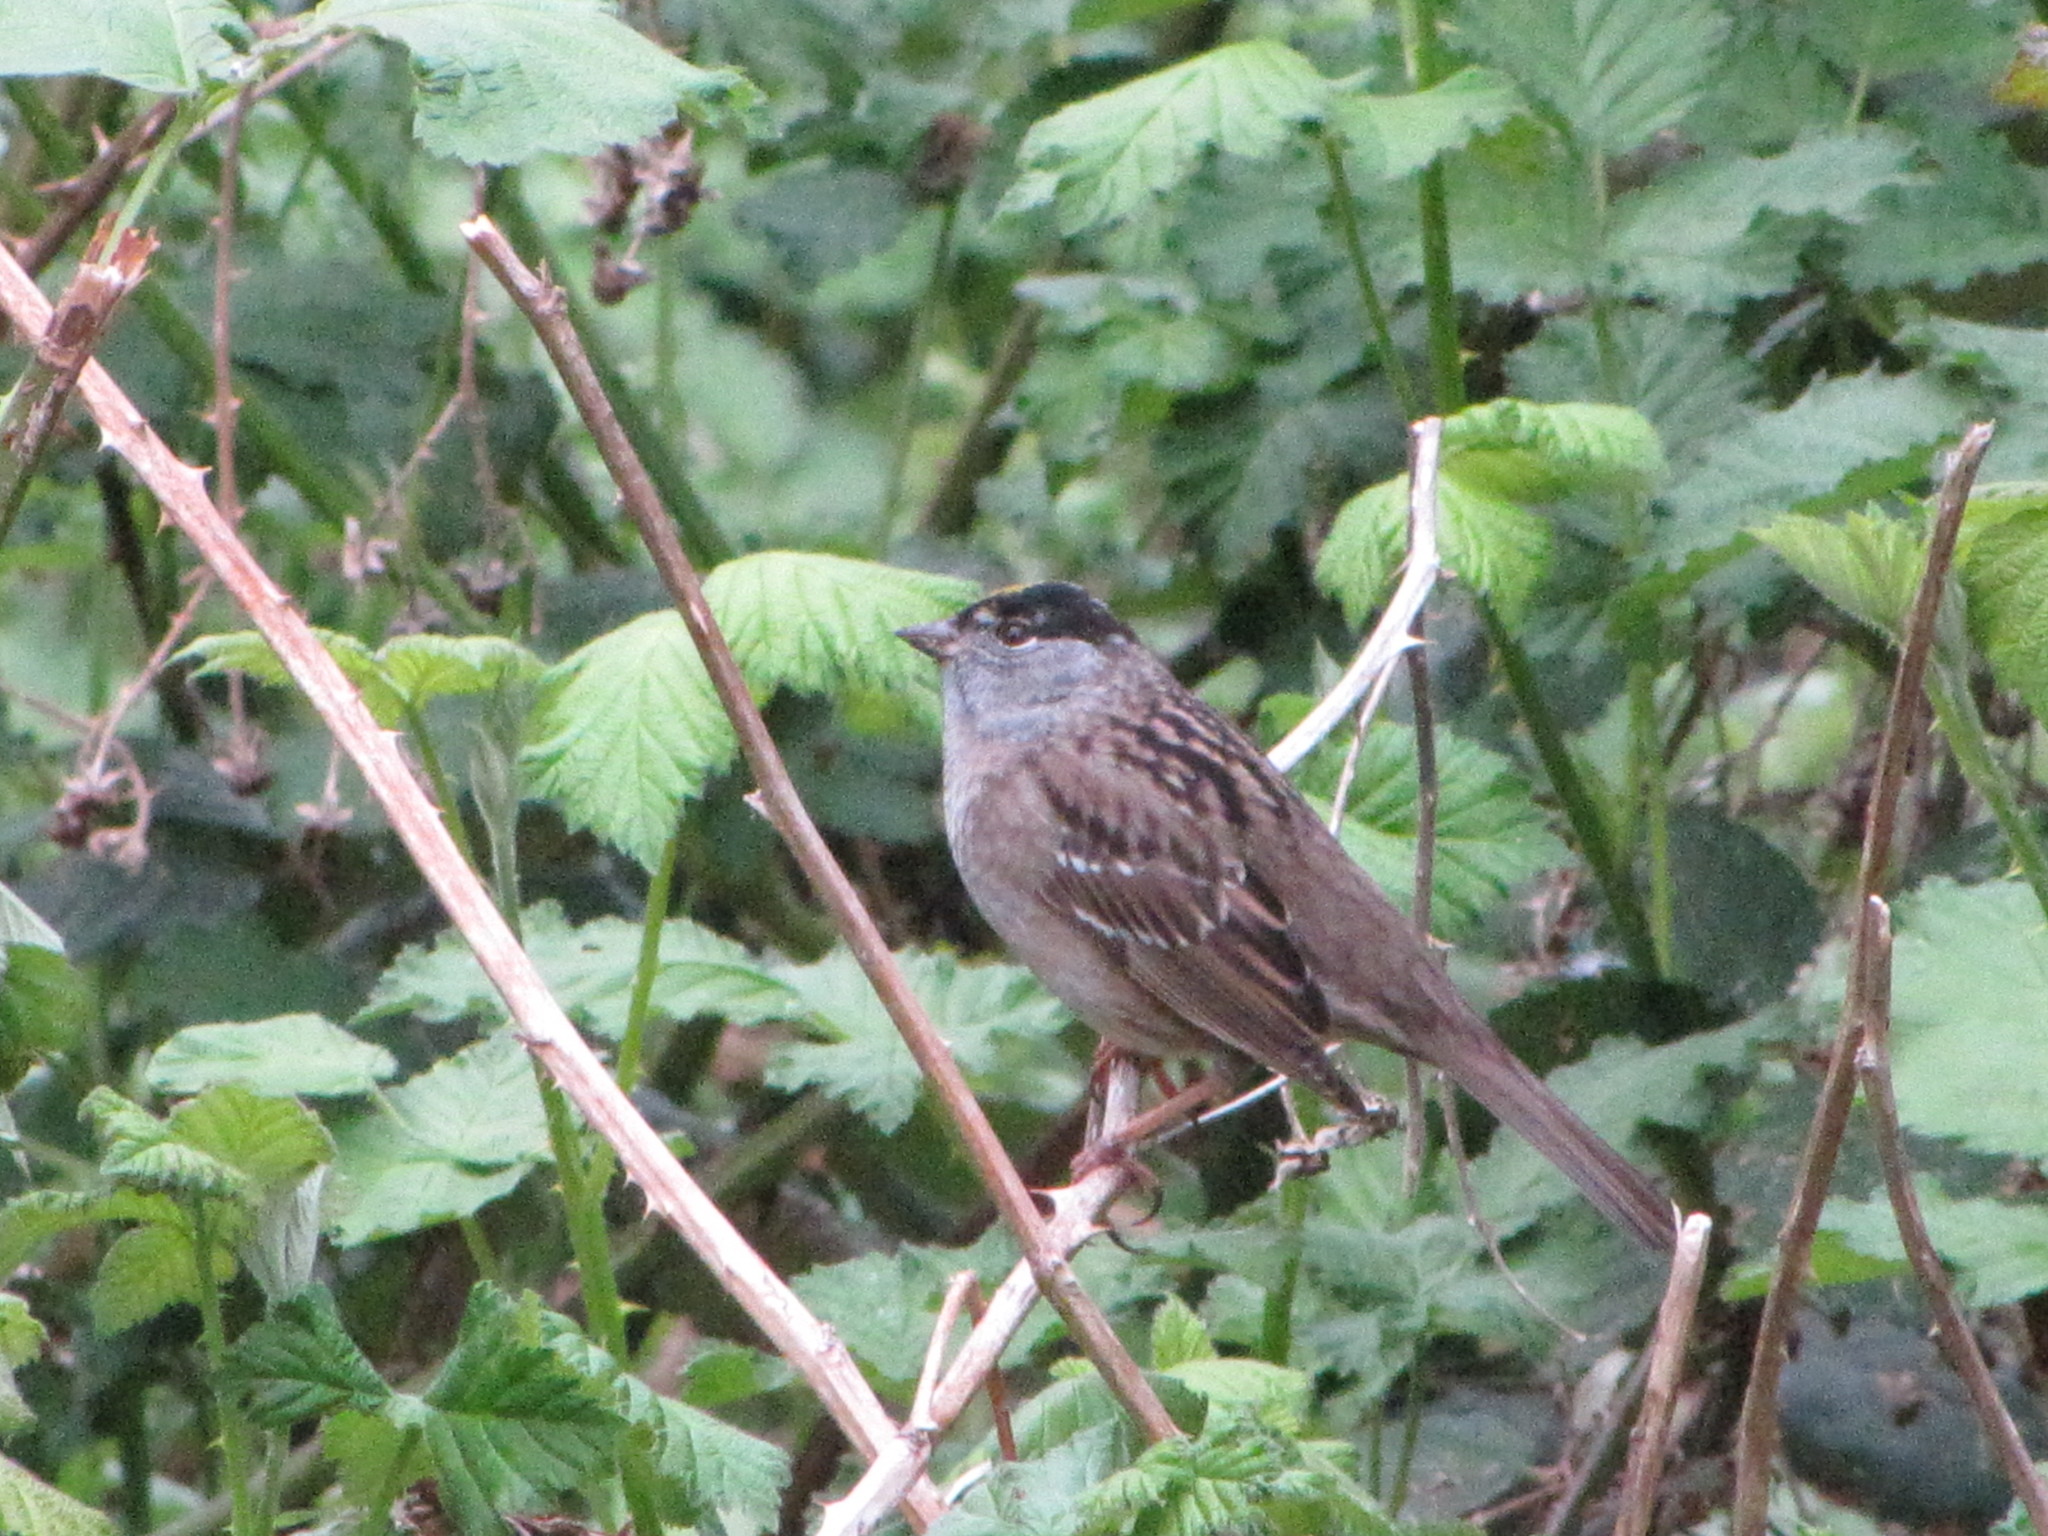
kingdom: Animalia
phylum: Chordata
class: Aves
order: Passeriformes
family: Passerellidae
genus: Zonotrichia
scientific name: Zonotrichia atricapilla
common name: Golden-crowned sparrow
